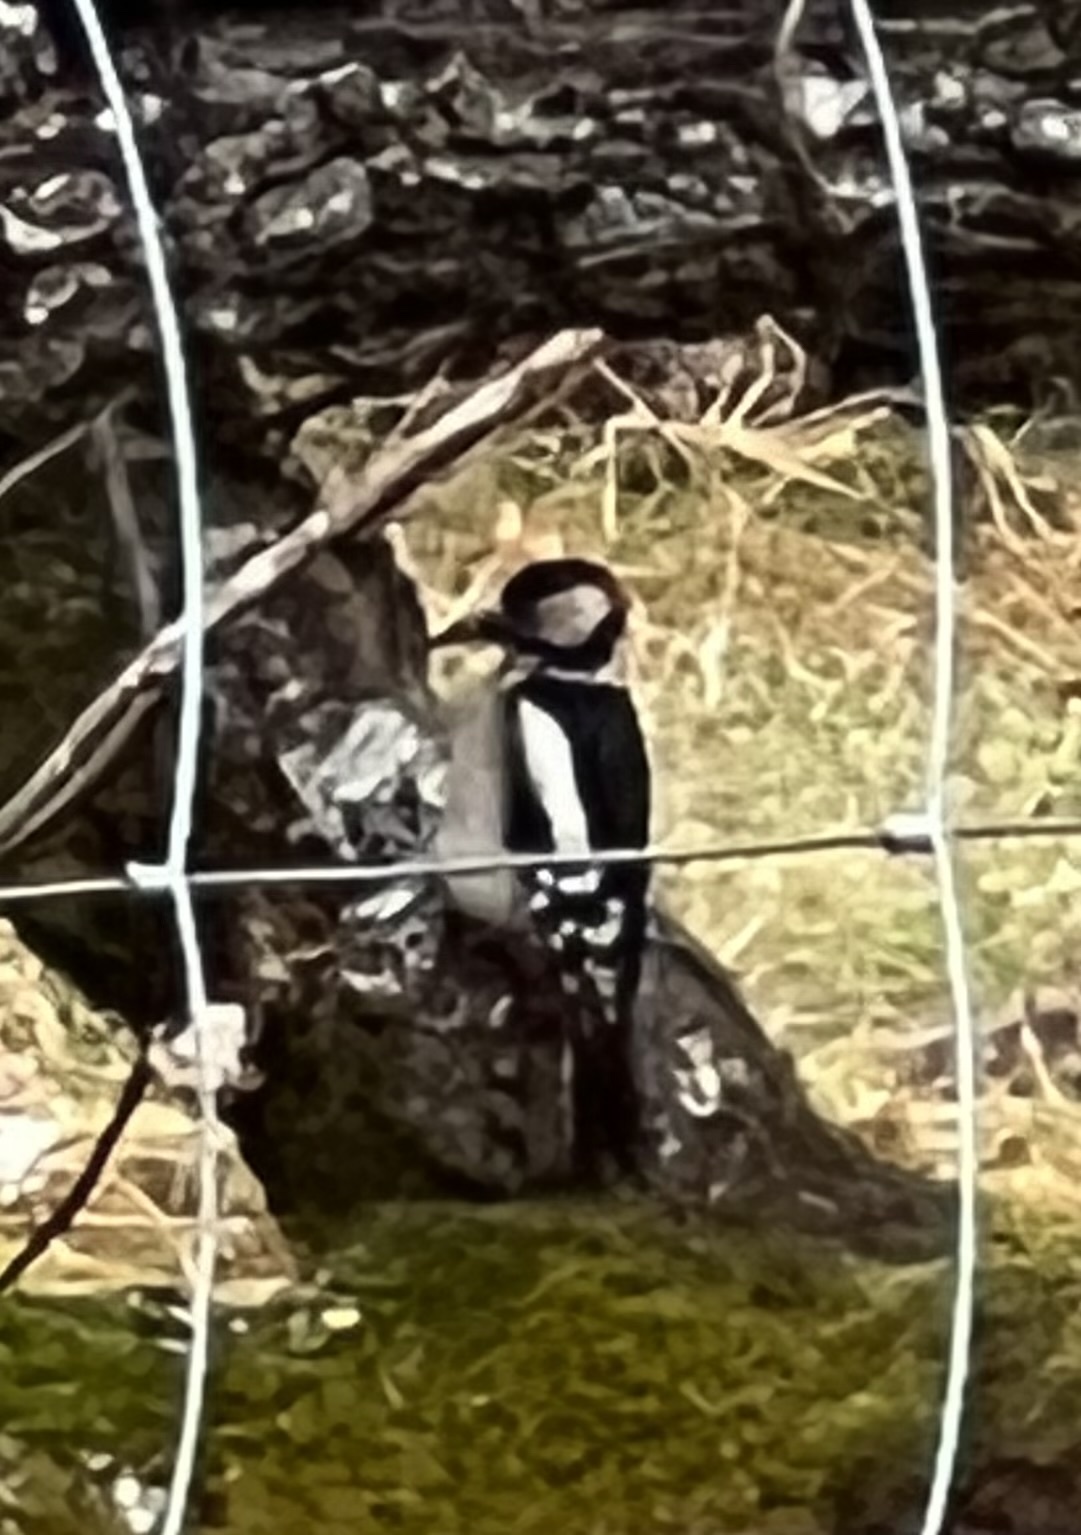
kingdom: Animalia
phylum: Chordata
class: Aves
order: Piciformes
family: Picidae
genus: Dendrocopos
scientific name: Dendrocopos major
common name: Great spotted woodpecker
